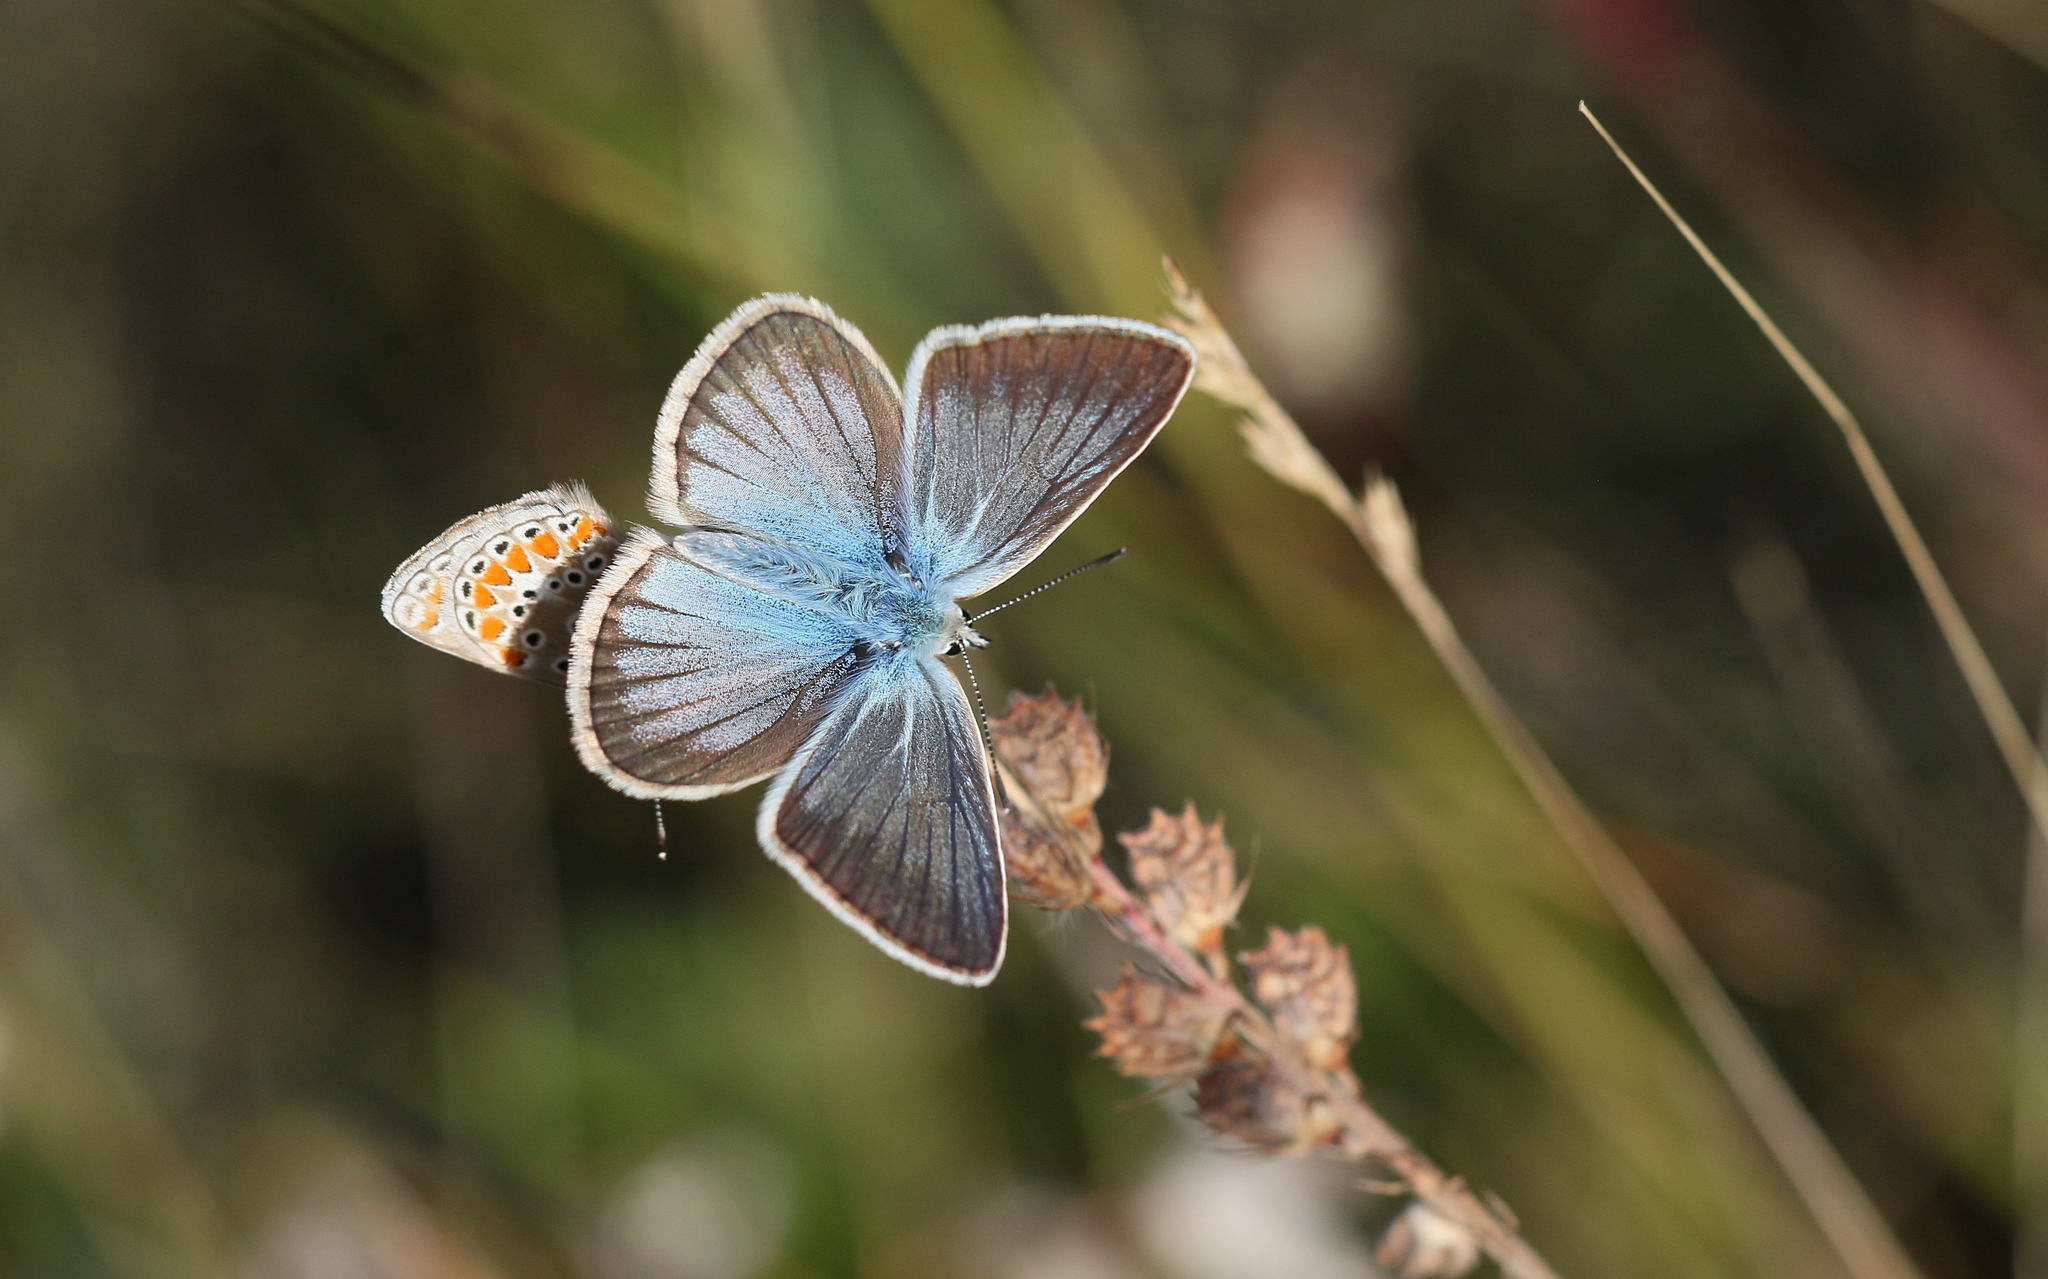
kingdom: Animalia
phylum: Arthropoda
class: Insecta
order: Lepidoptera
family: Lycaenidae
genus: Agrodiaetus
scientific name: Agrodiaetus damon
